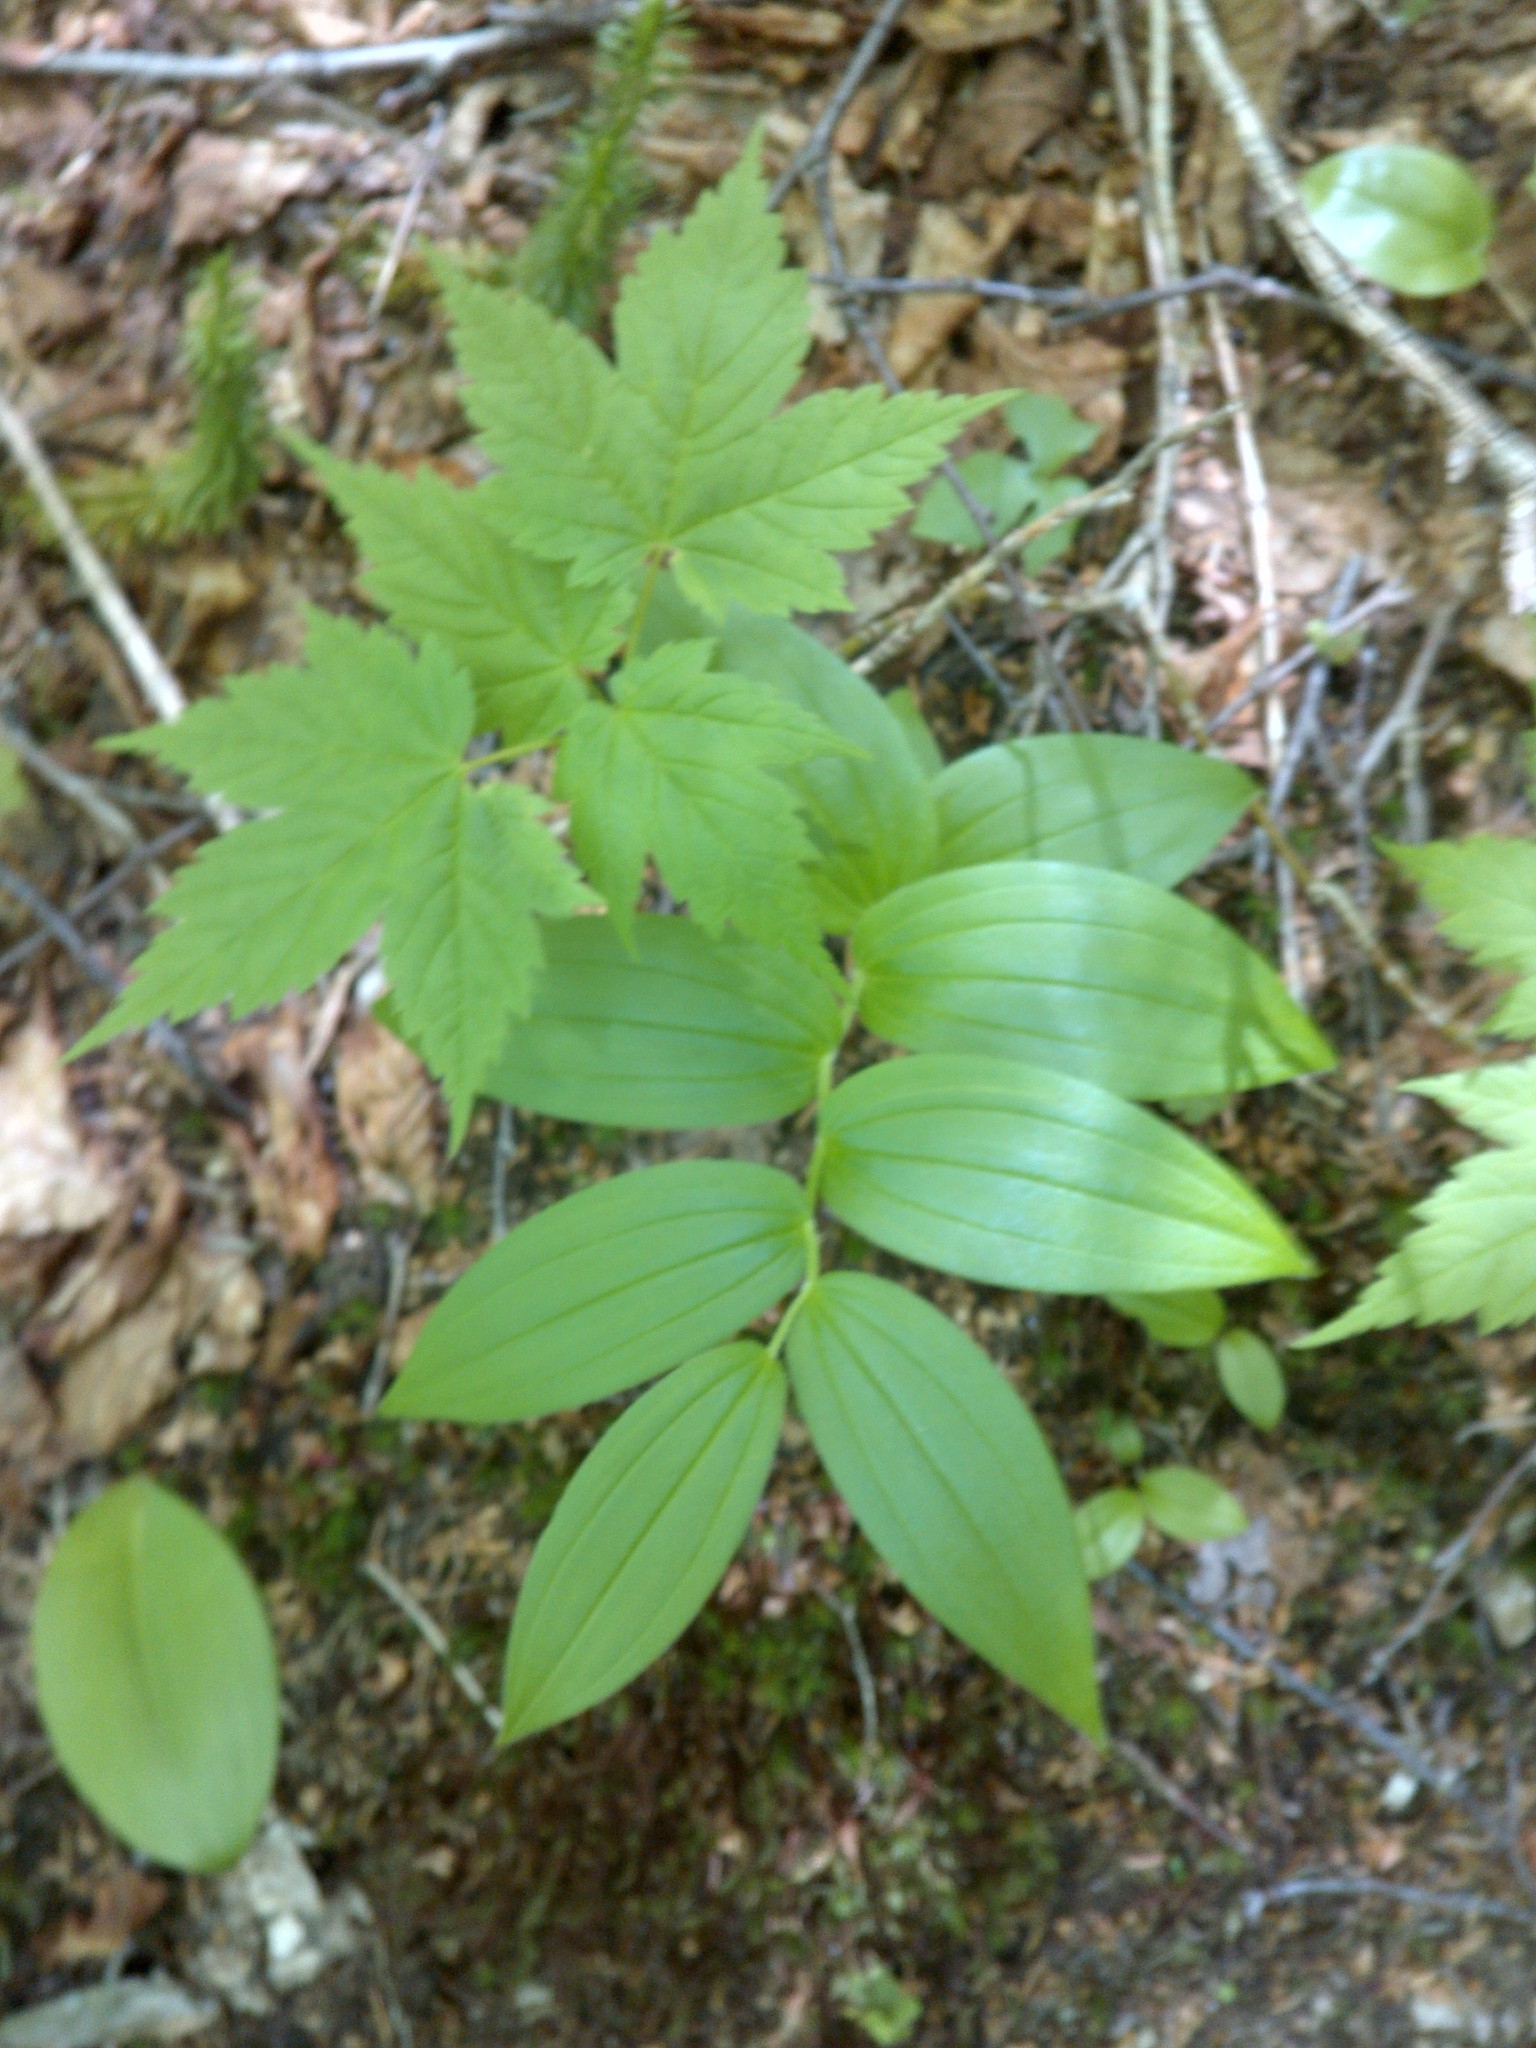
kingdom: Plantae
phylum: Tracheophyta
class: Liliopsida
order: Liliales
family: Liliaceae
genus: Streptopus
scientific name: Streptopus lanceolatus
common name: Rose mandarin
